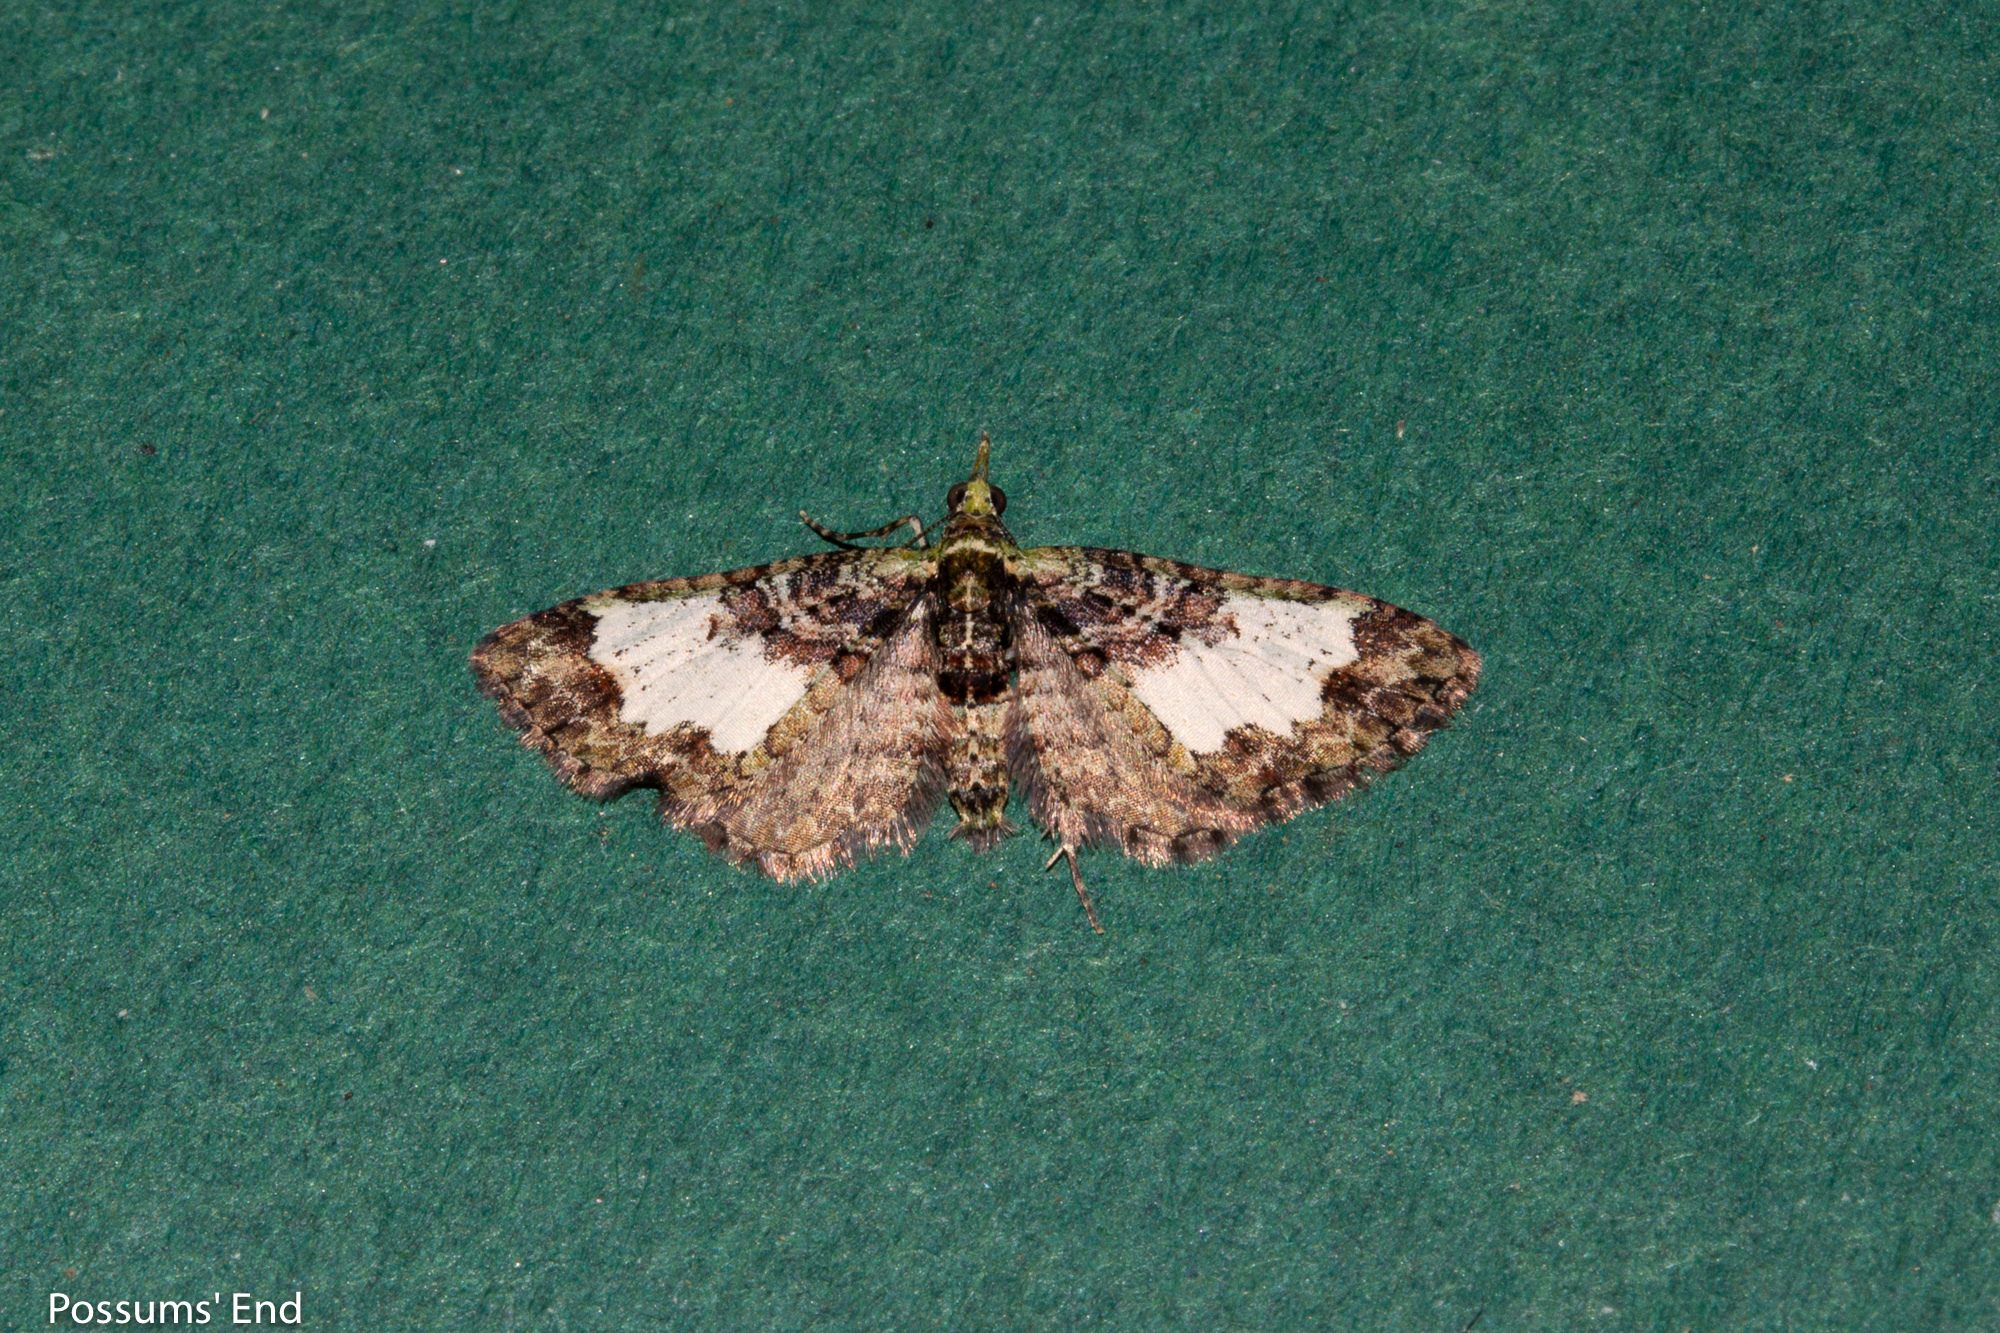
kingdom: Animalia
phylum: Arthropoda
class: Insecta
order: Lepidoptera
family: Geometridae
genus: Idaea
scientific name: Idaea mutanda
